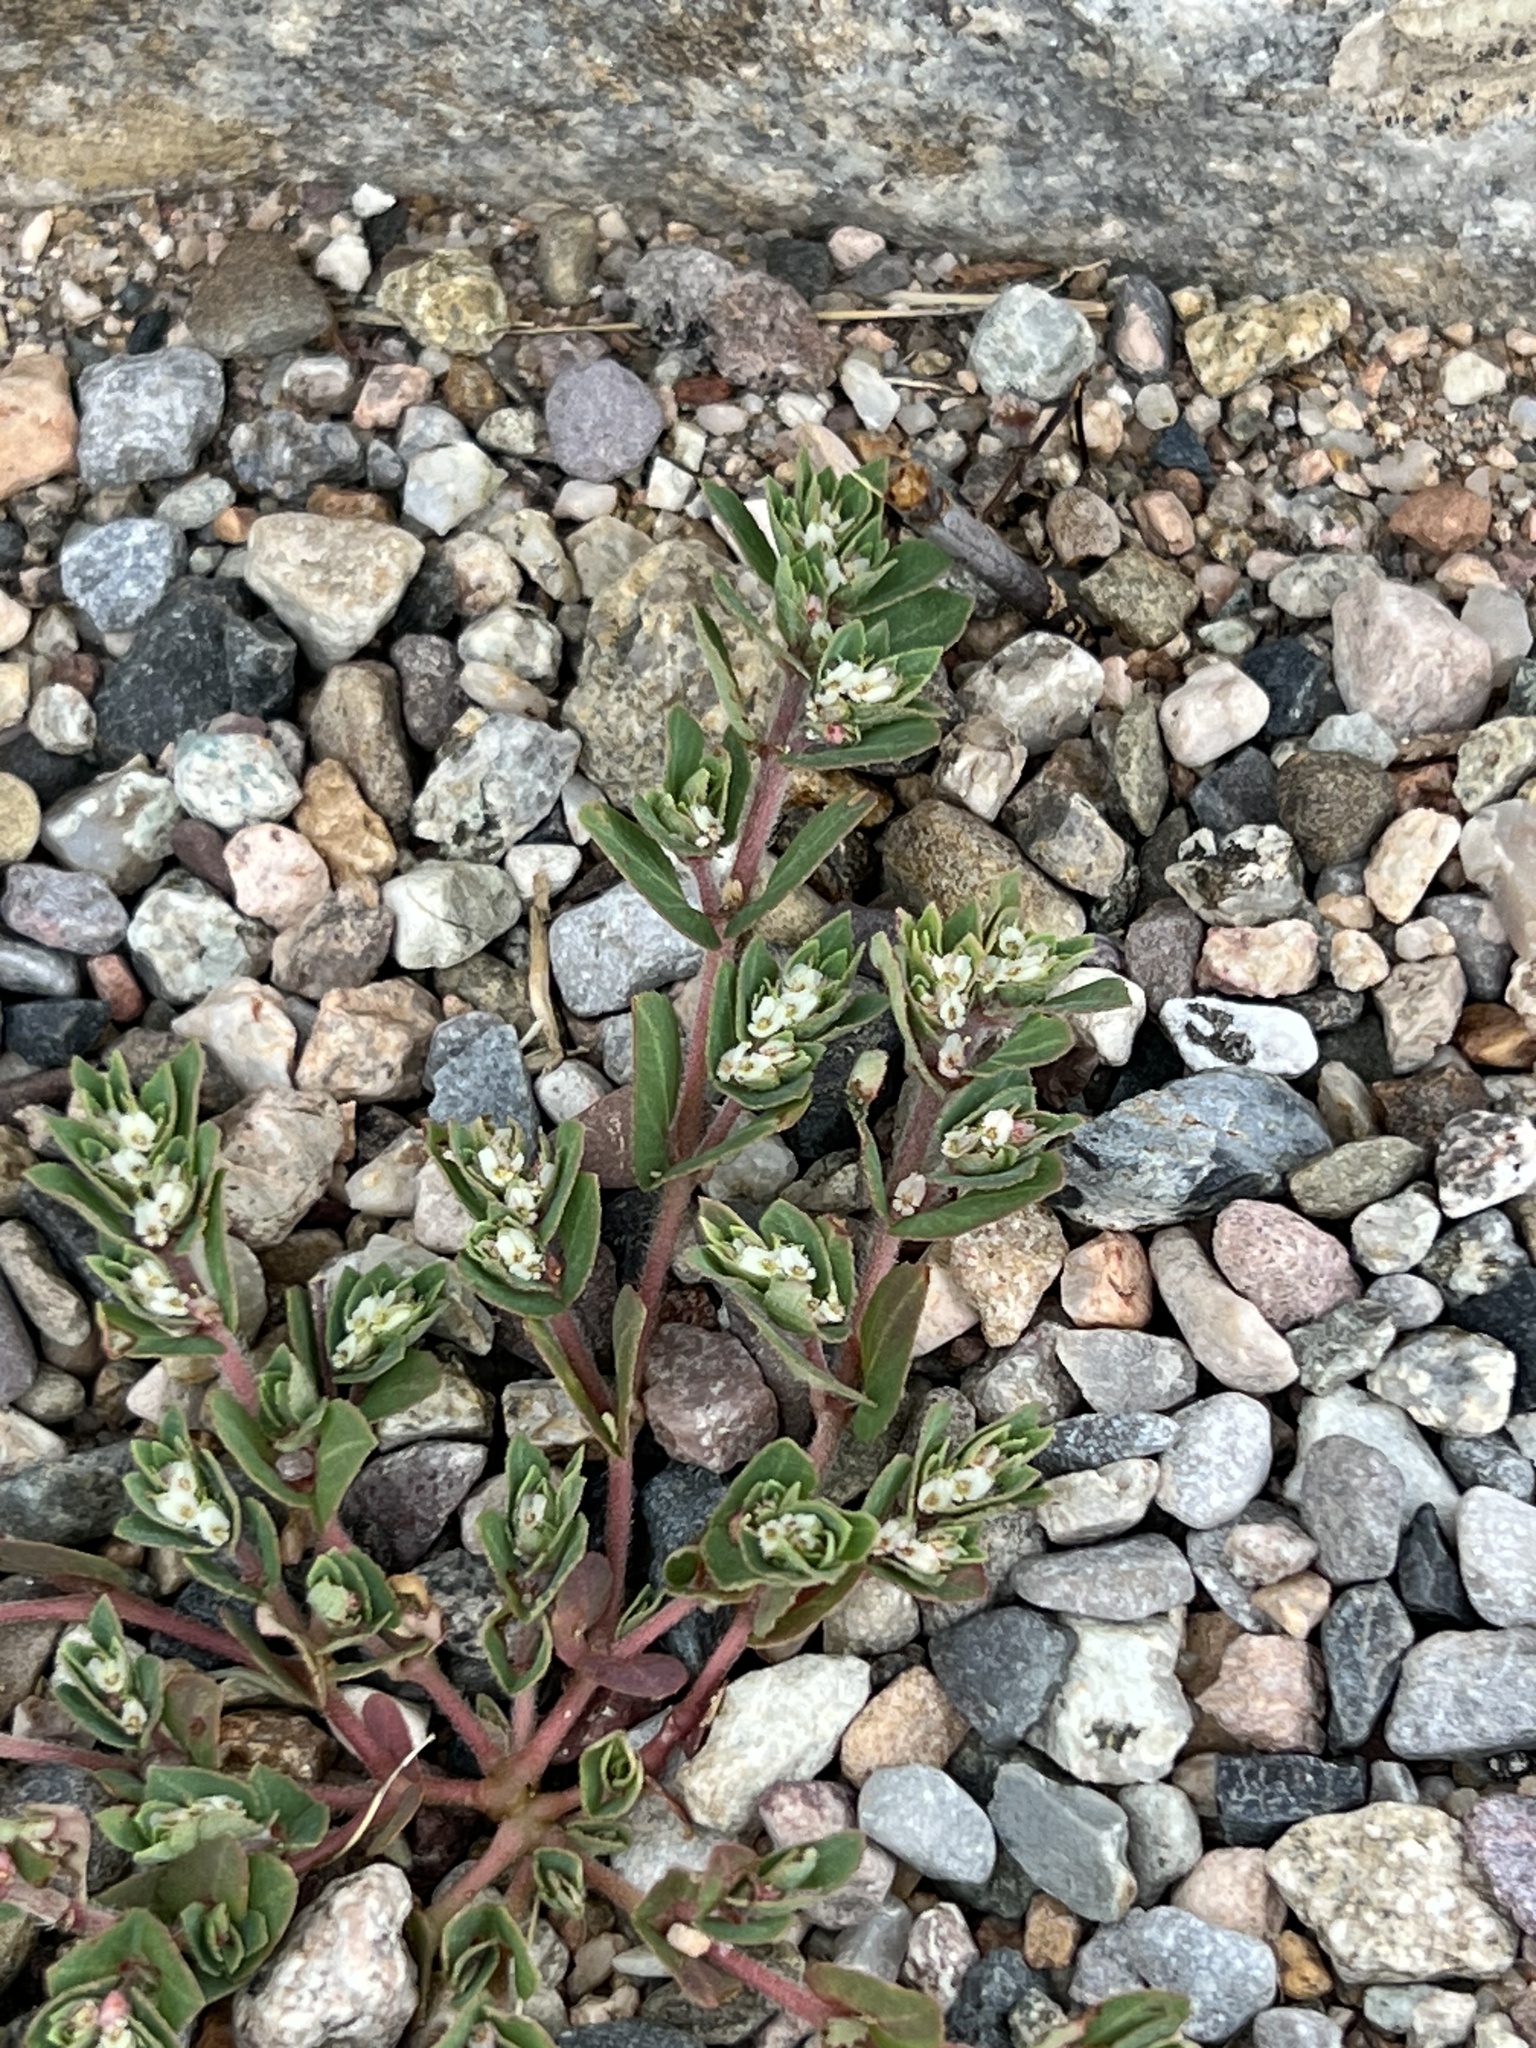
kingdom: Plantae
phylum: Tracheophyta
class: Magnoliopsida
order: Malpighiales
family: Euphorbiaceae
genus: Euphorbia
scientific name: Euphorbia indivisa
